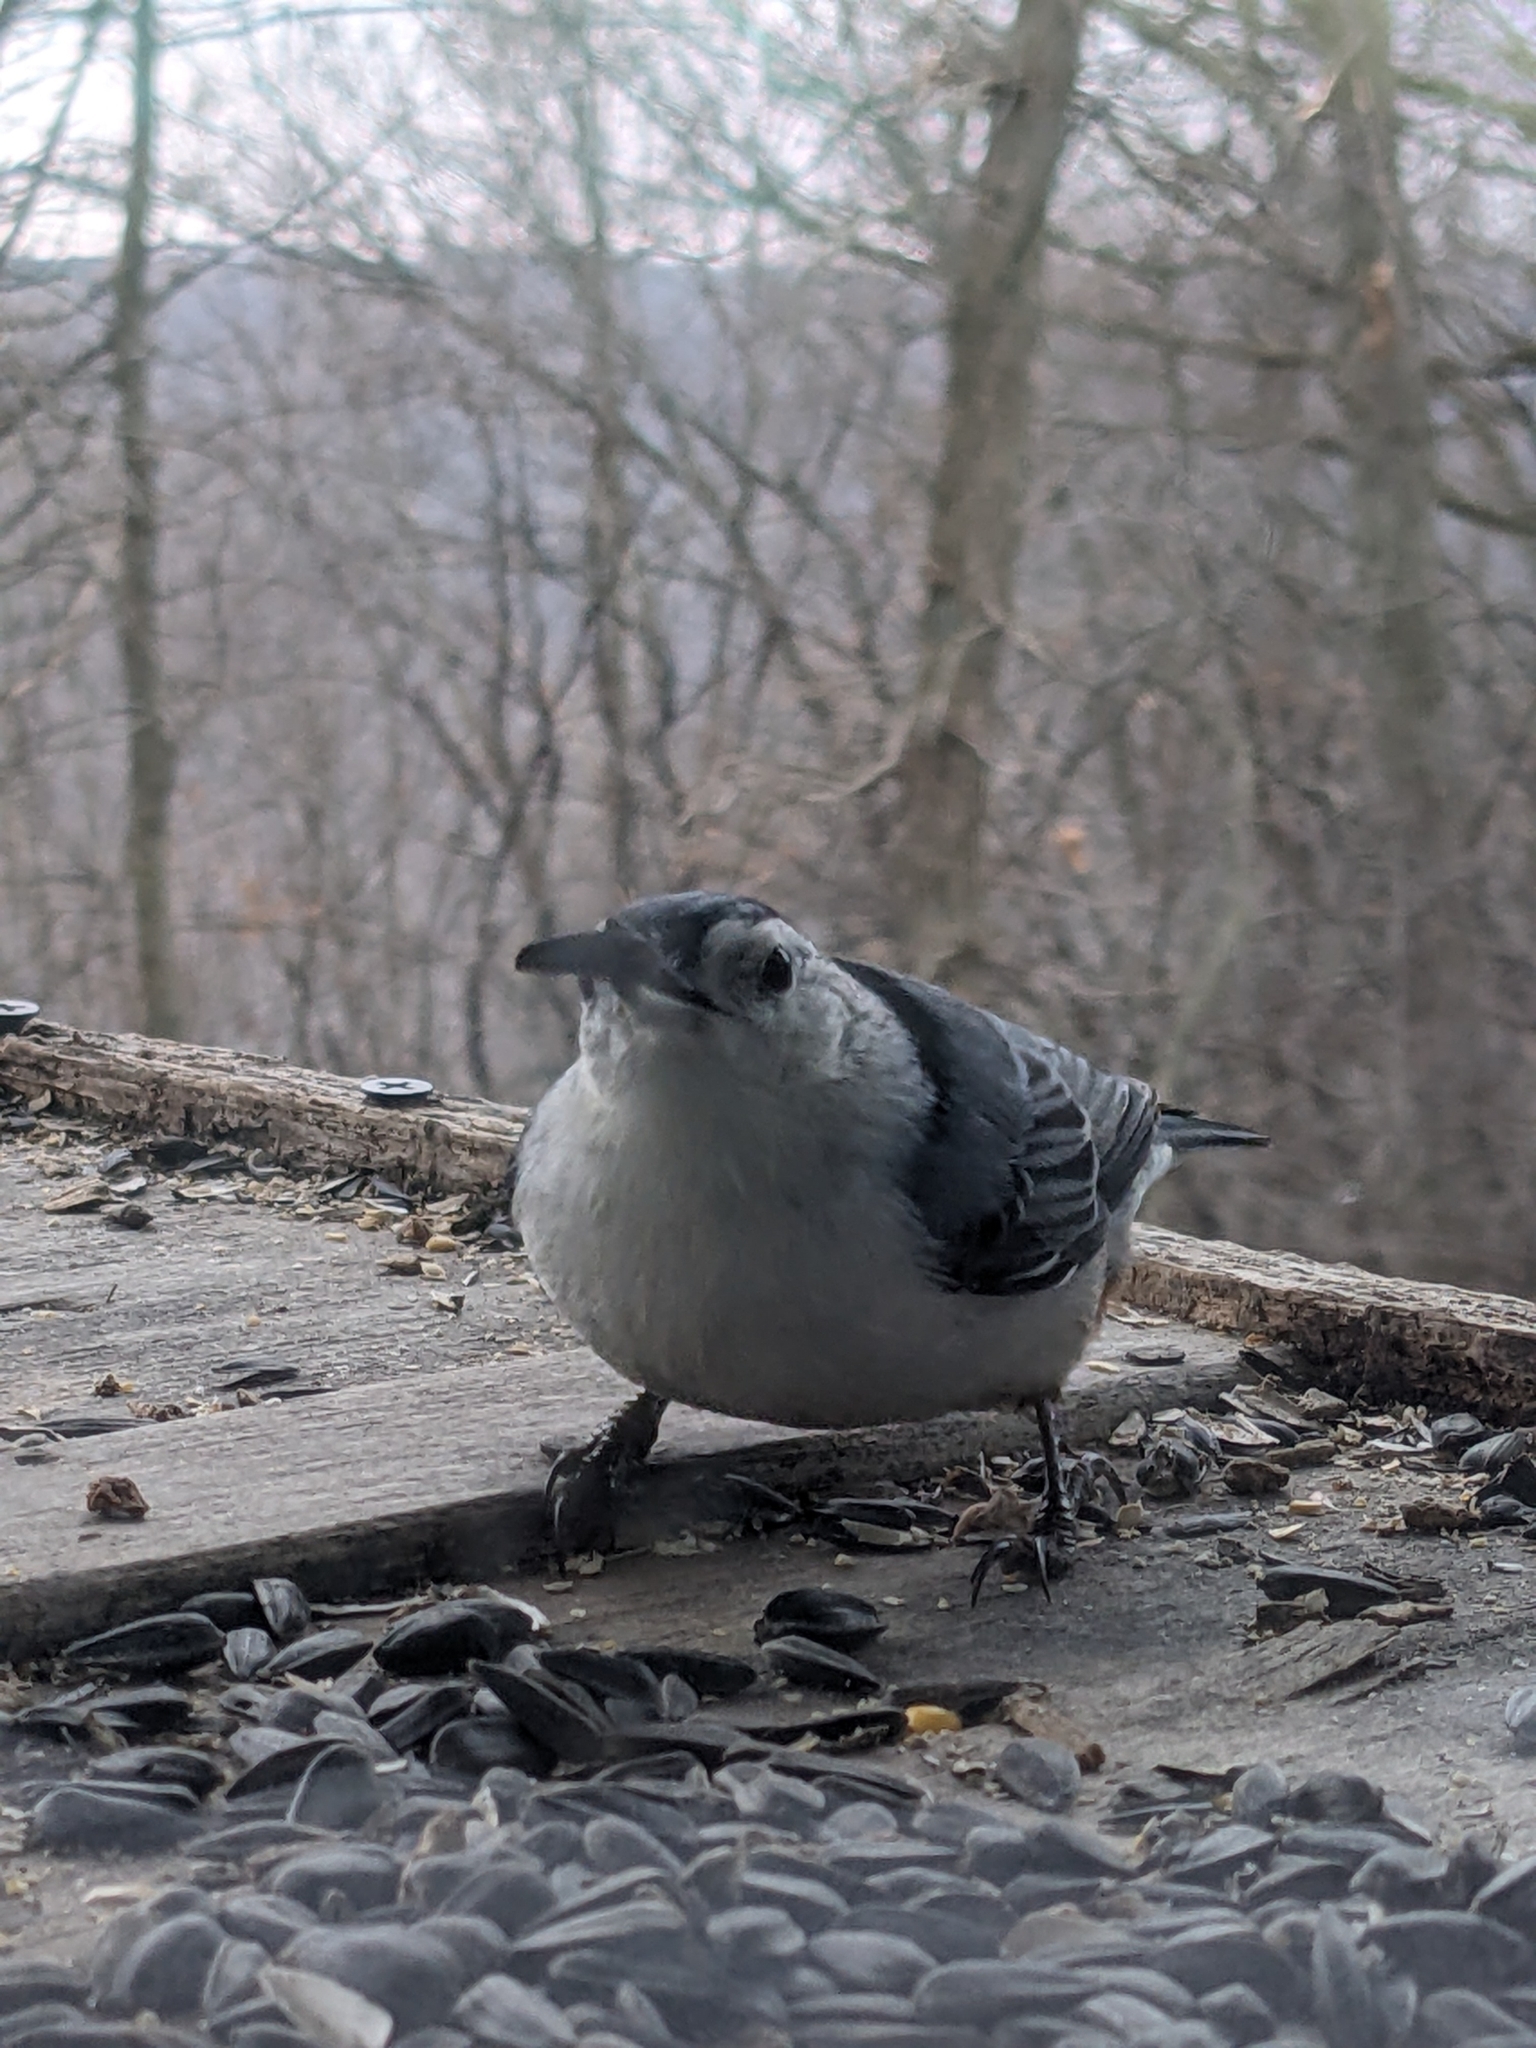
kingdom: Animalia
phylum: Chordata
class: Aves
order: Passeriformes
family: Sittidae
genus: Sitta
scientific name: Sitta carolinensis
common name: White-breasted nuthatch
